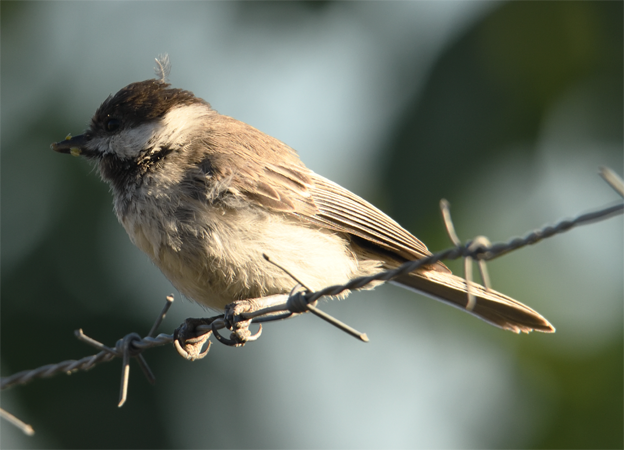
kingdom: Animalia
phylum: Chordata
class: Aves
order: Passeriformes
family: Paridae
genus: Poecile
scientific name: Poecile lugubris
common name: Sombre tit
